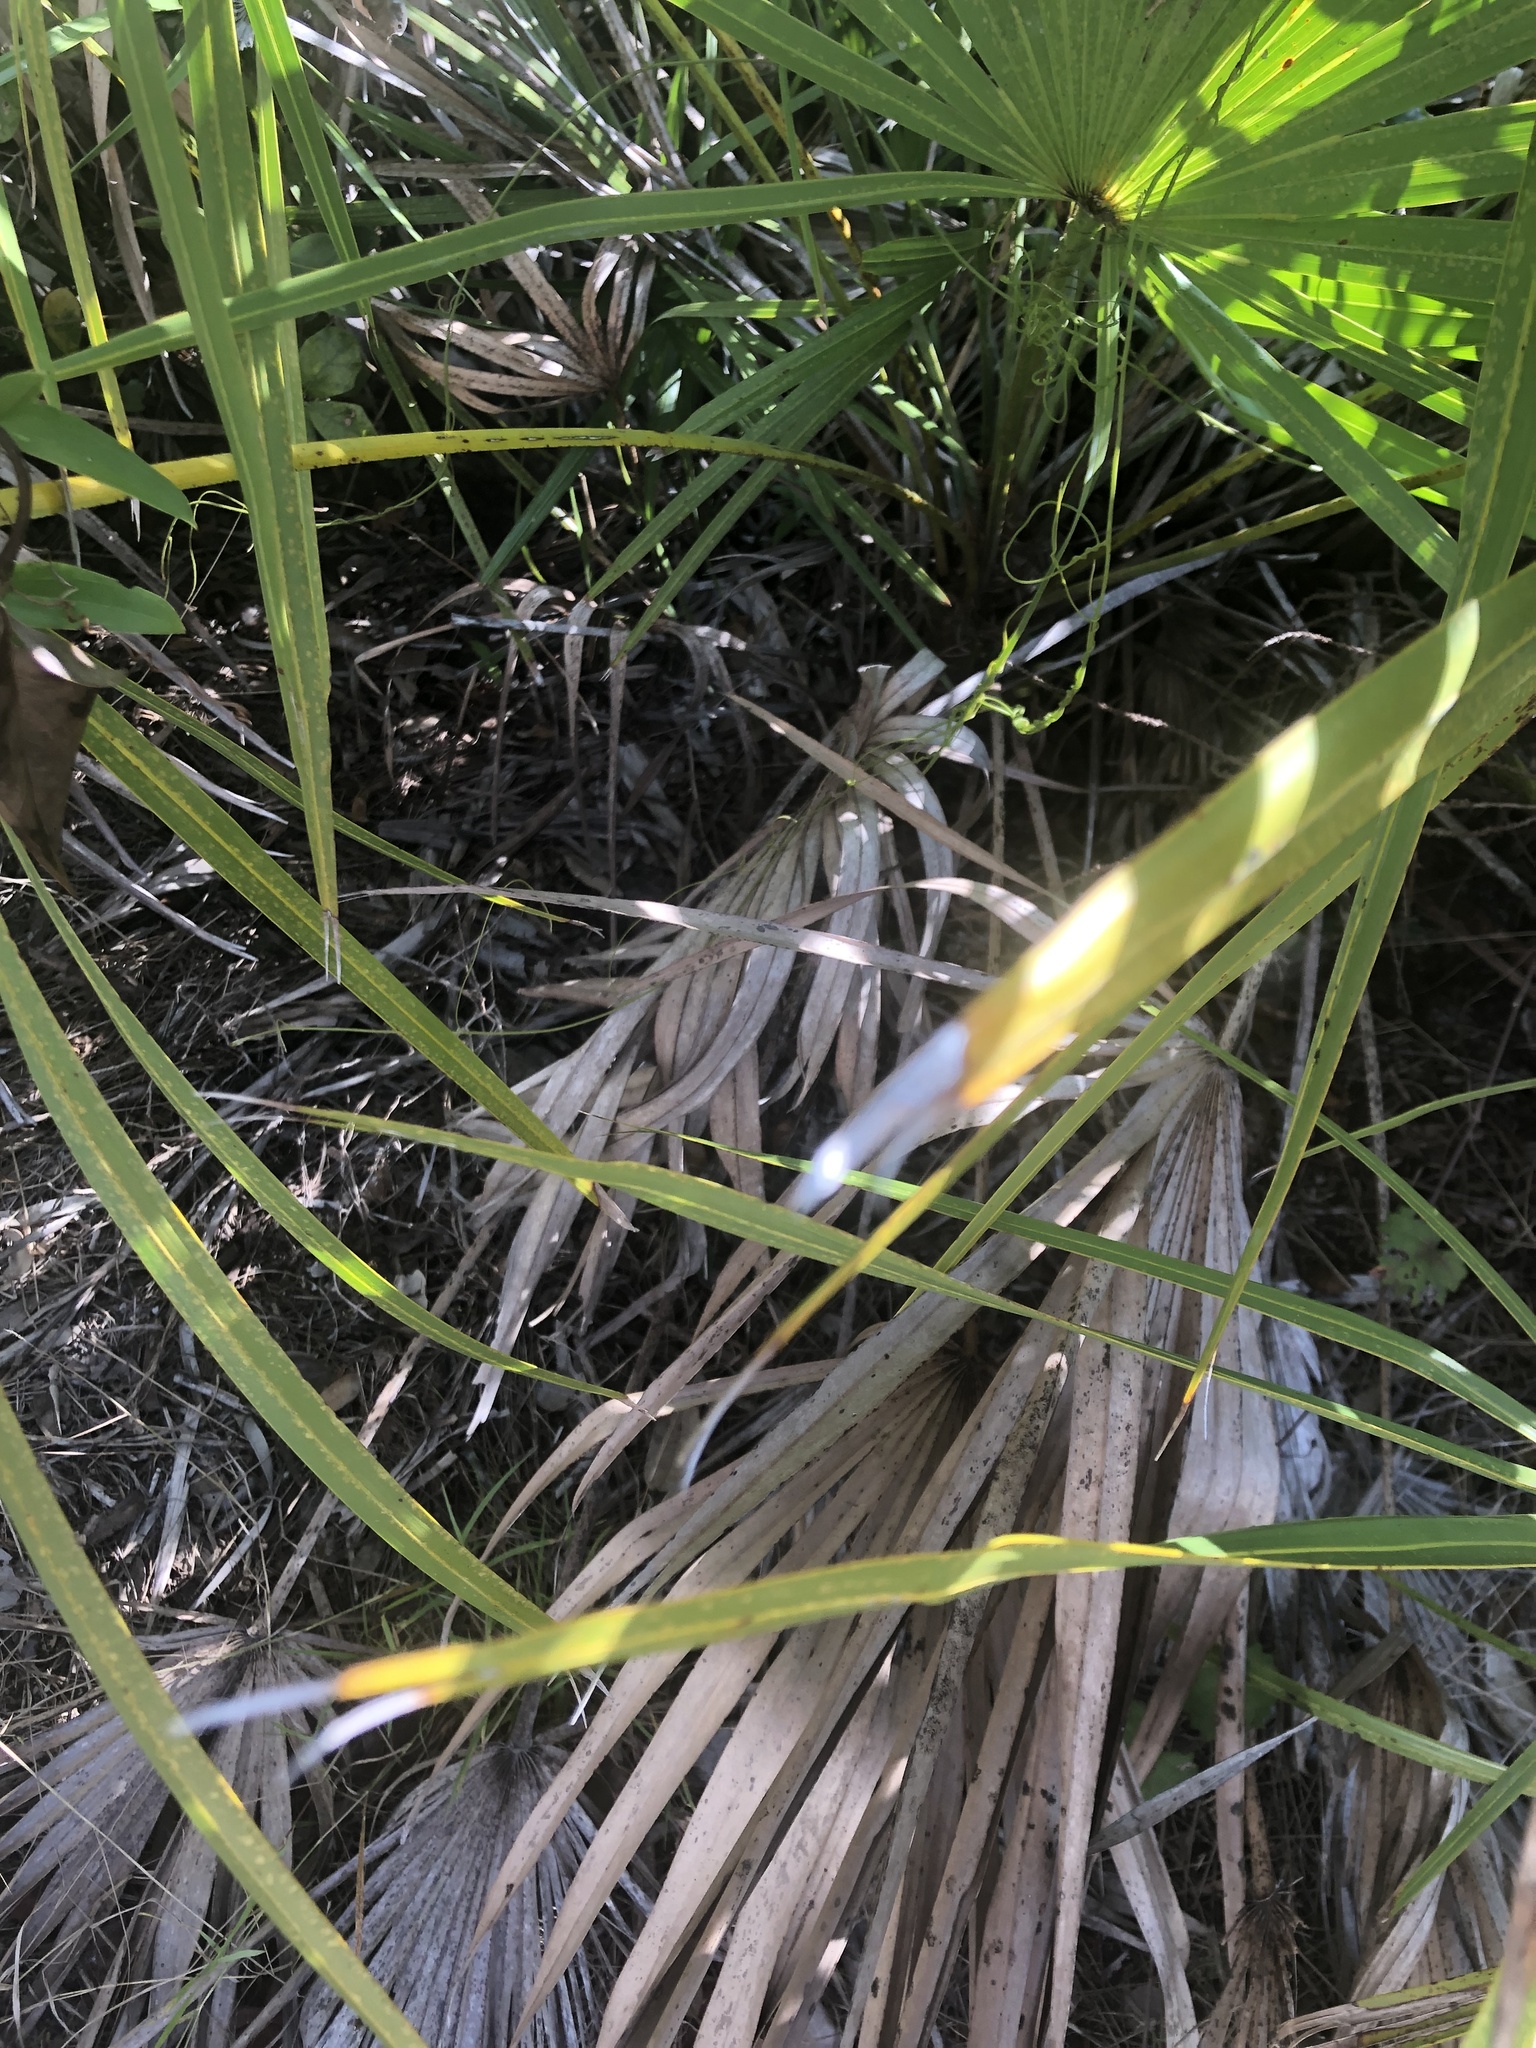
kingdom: Animalia
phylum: Chordata
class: Squamata
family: Dactyloidae
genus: Anolis
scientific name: Anolis sagrei
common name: Brown anole
